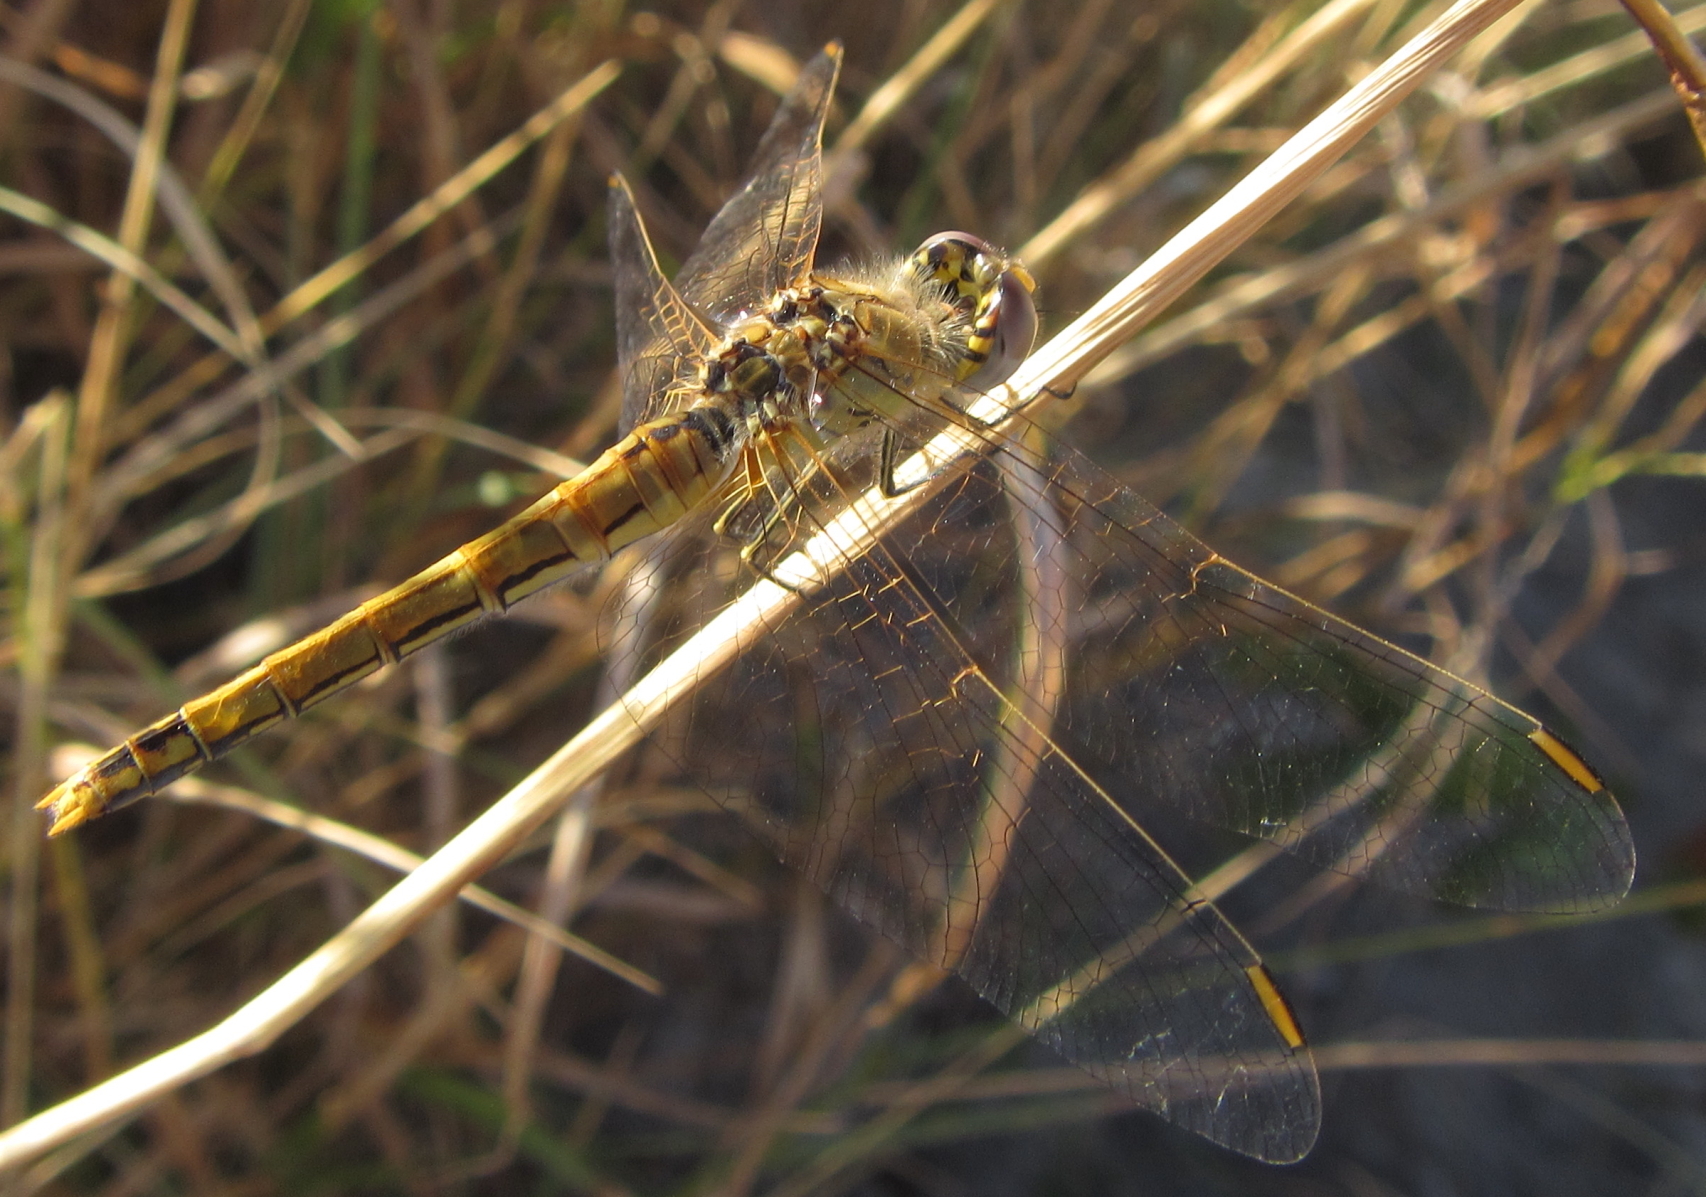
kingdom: Animalia
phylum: Arthropoda
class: Insecta
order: Odonata
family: Libellulidae
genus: Sympetrum
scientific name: Sympetrum fonscolombii
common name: Red-veined darter
